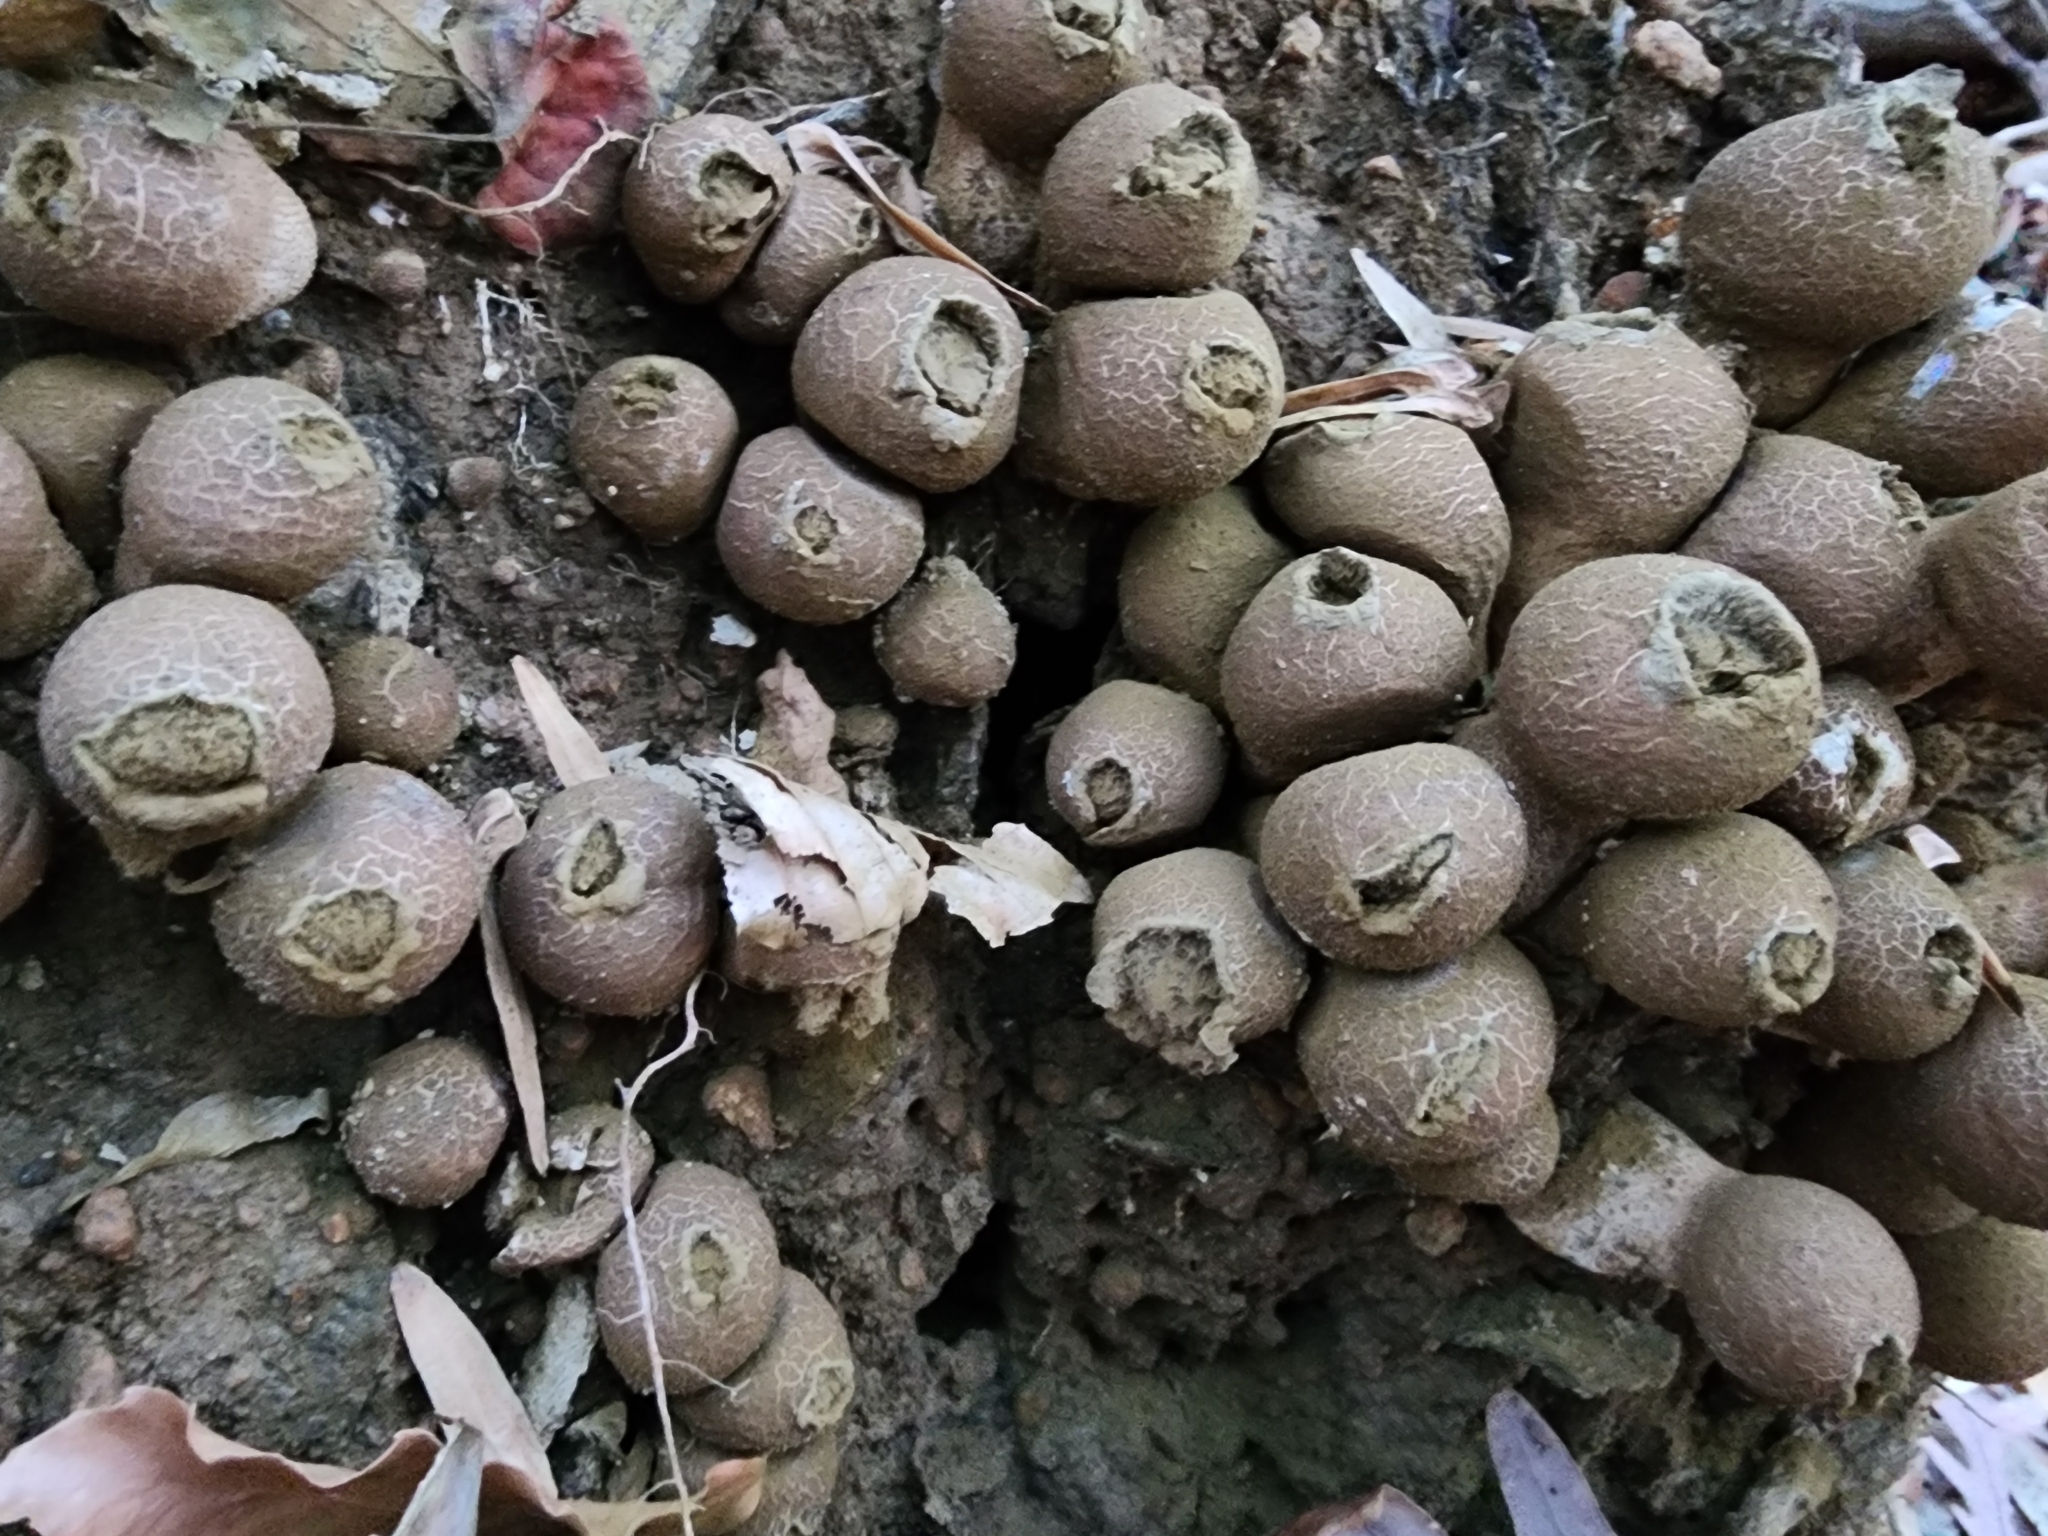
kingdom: Fungi
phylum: Basidiomycota
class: Agaricomycetes
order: Agaricales
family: Lycoperdaceae
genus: Apioperdon
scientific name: Apioperdon pyriforme
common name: Pear-shaped puffball
